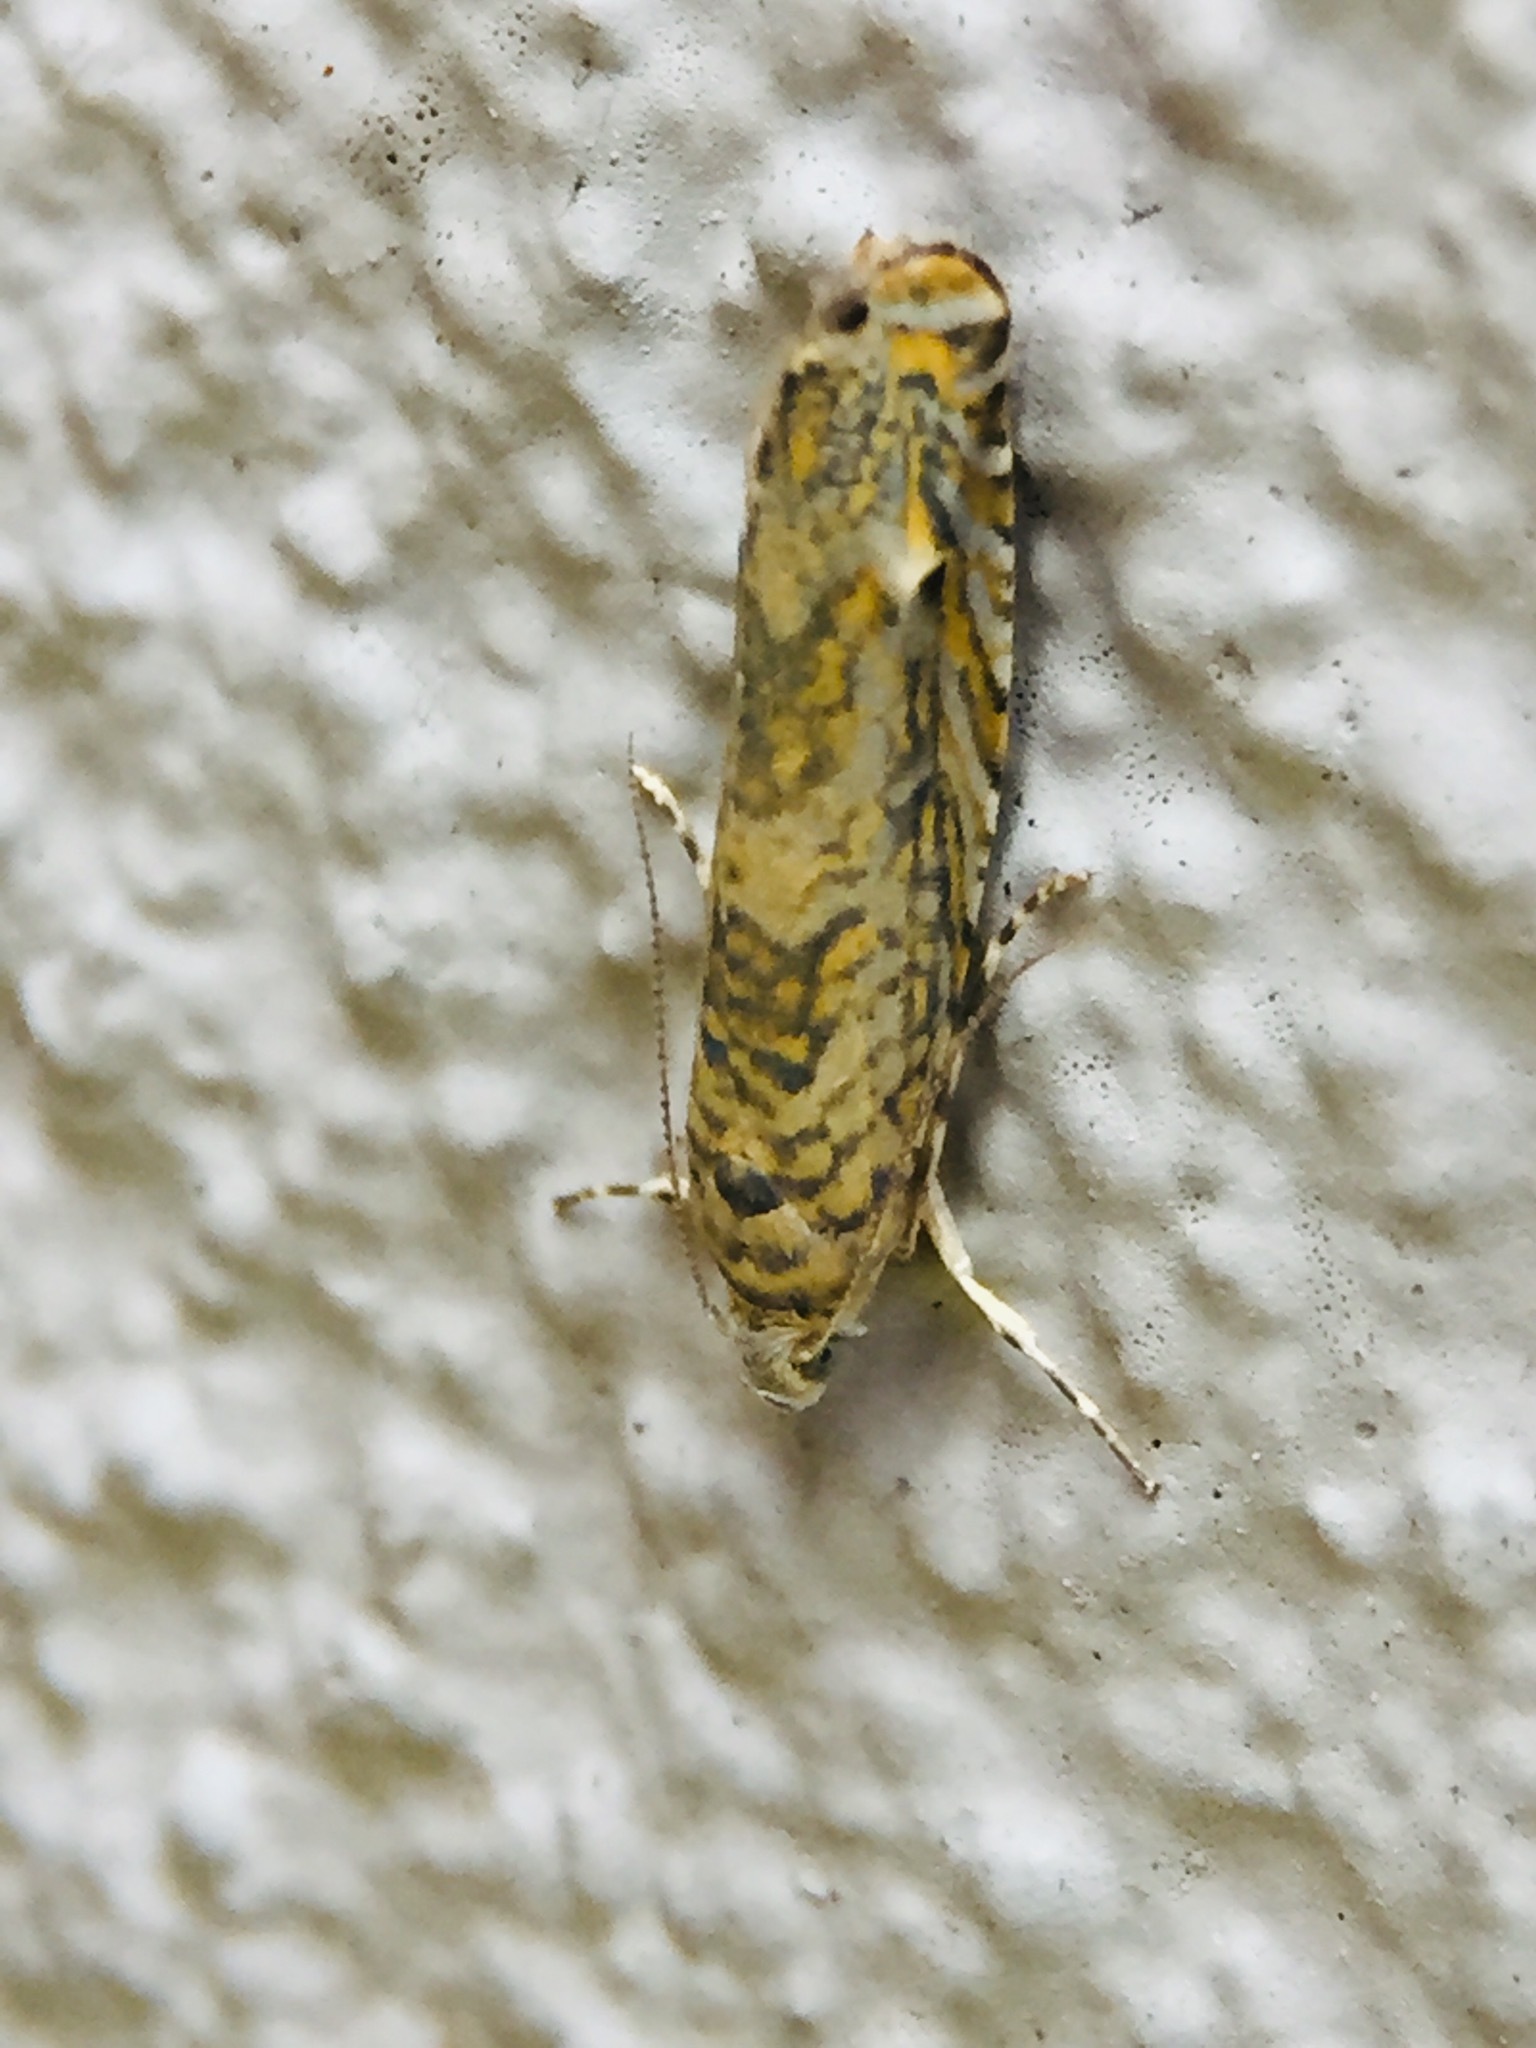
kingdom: Animalia
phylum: Arthropoda
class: Insecta
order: Lepidoptera
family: Plutellidae
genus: Doxophyrtis
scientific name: Doxophyrtis hydrocosma
